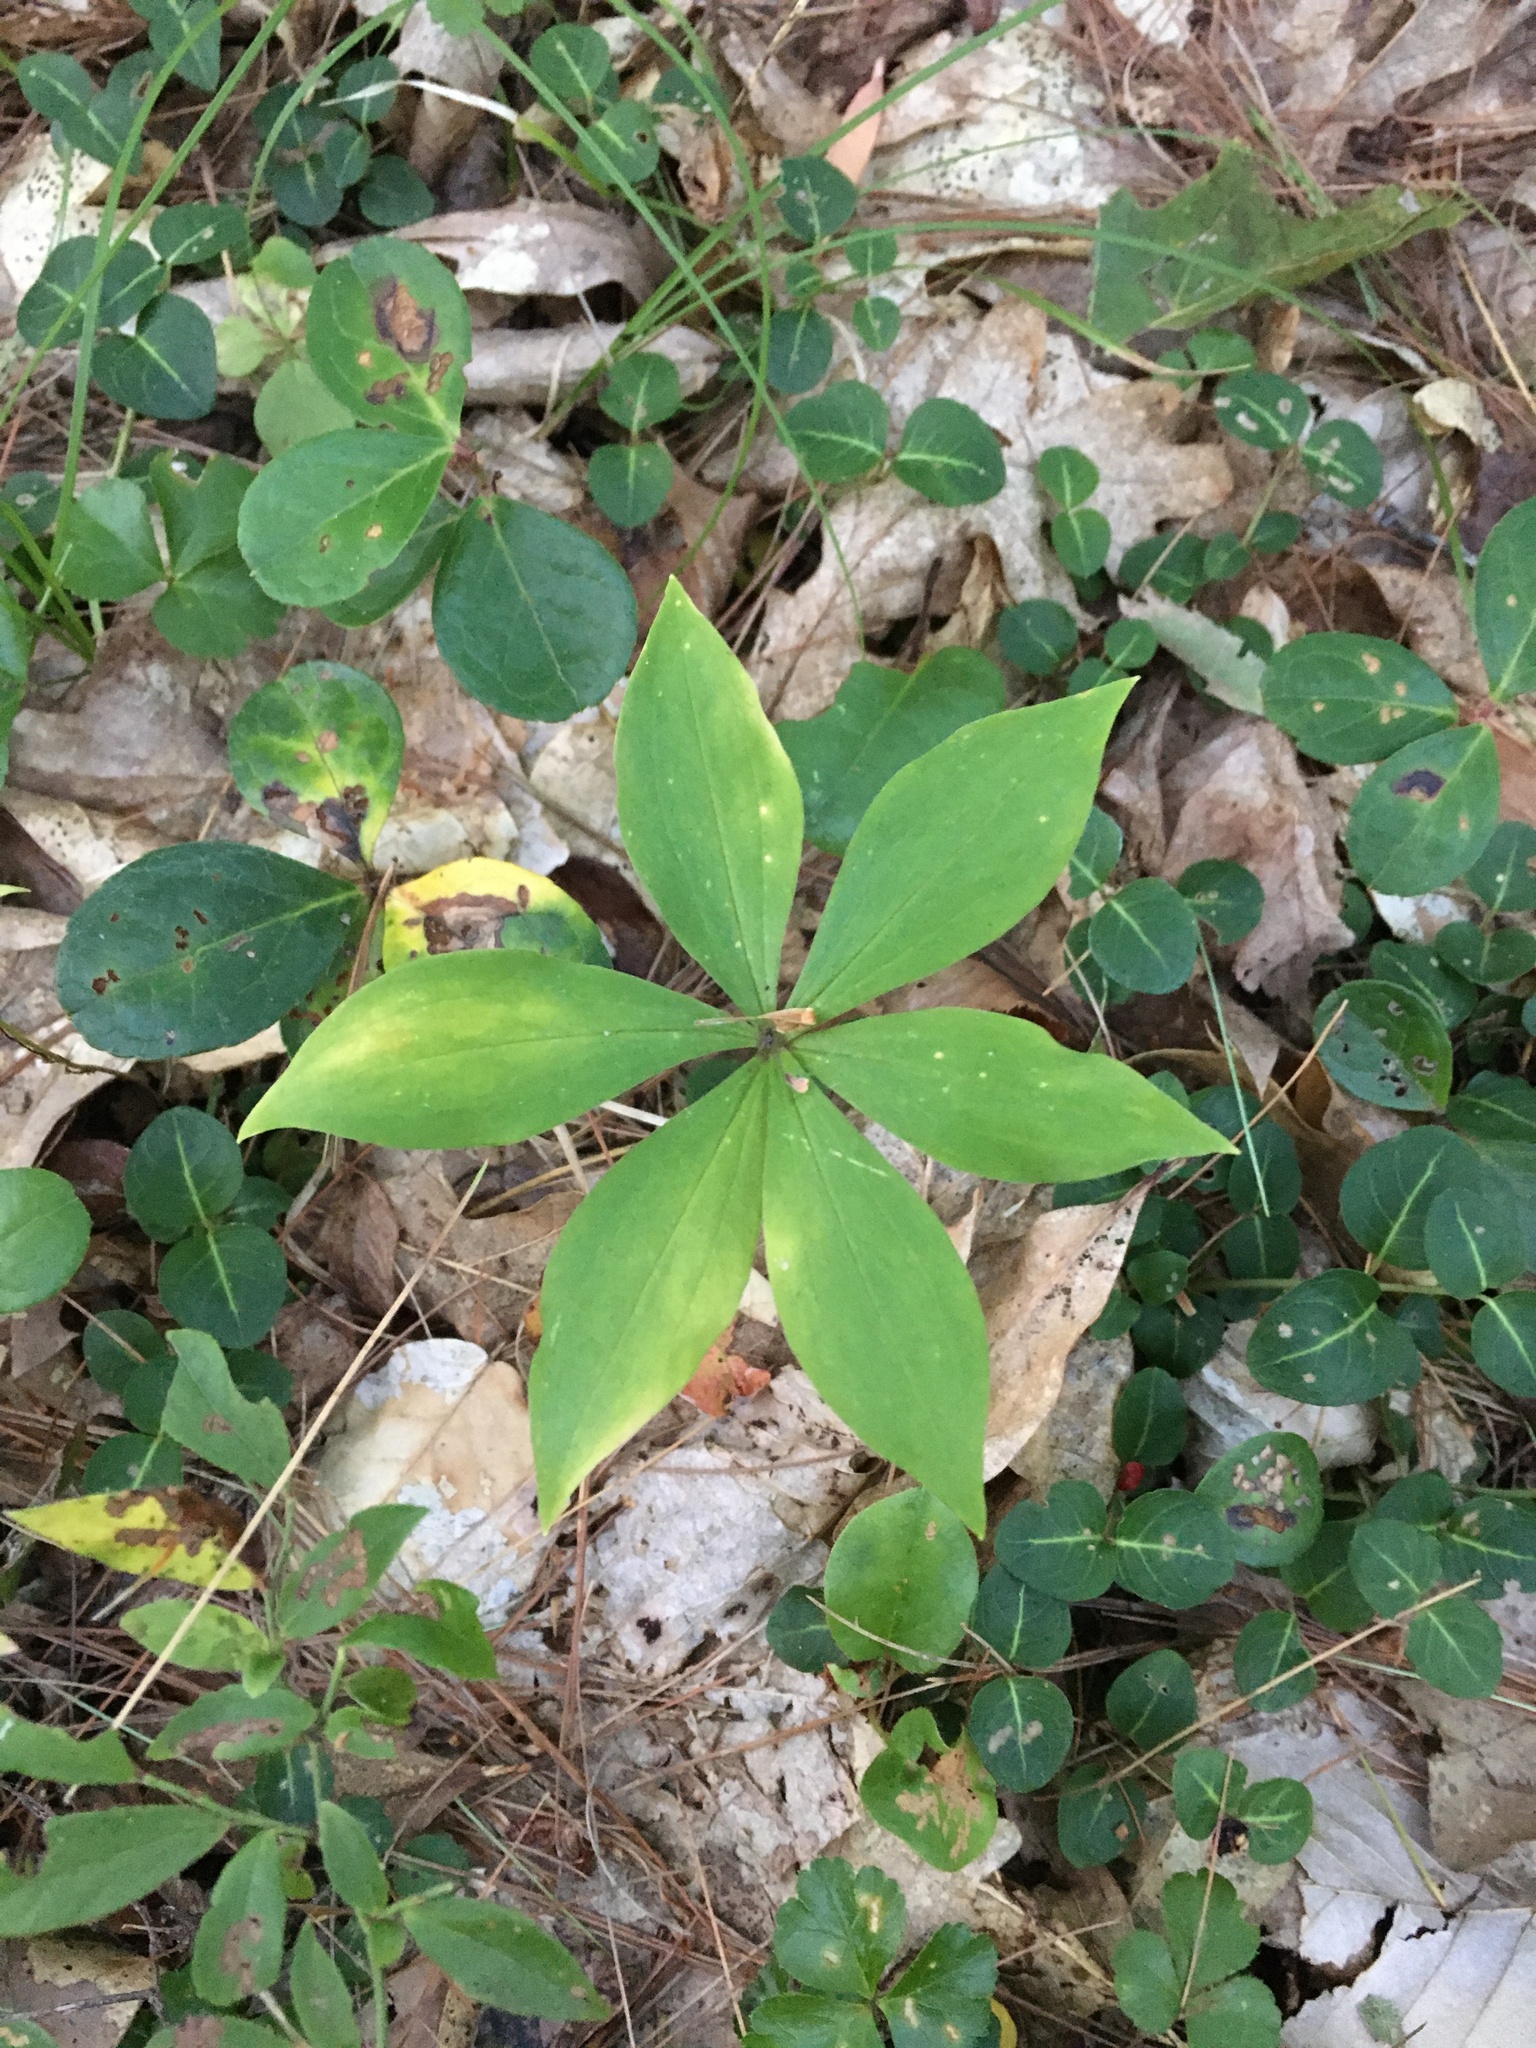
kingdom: Plantae
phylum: Tracheophyta
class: Liliopsida
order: Liliales
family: Liliaceae
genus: Medeola
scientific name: Medeola virginiana
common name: Indian cucumber-root
